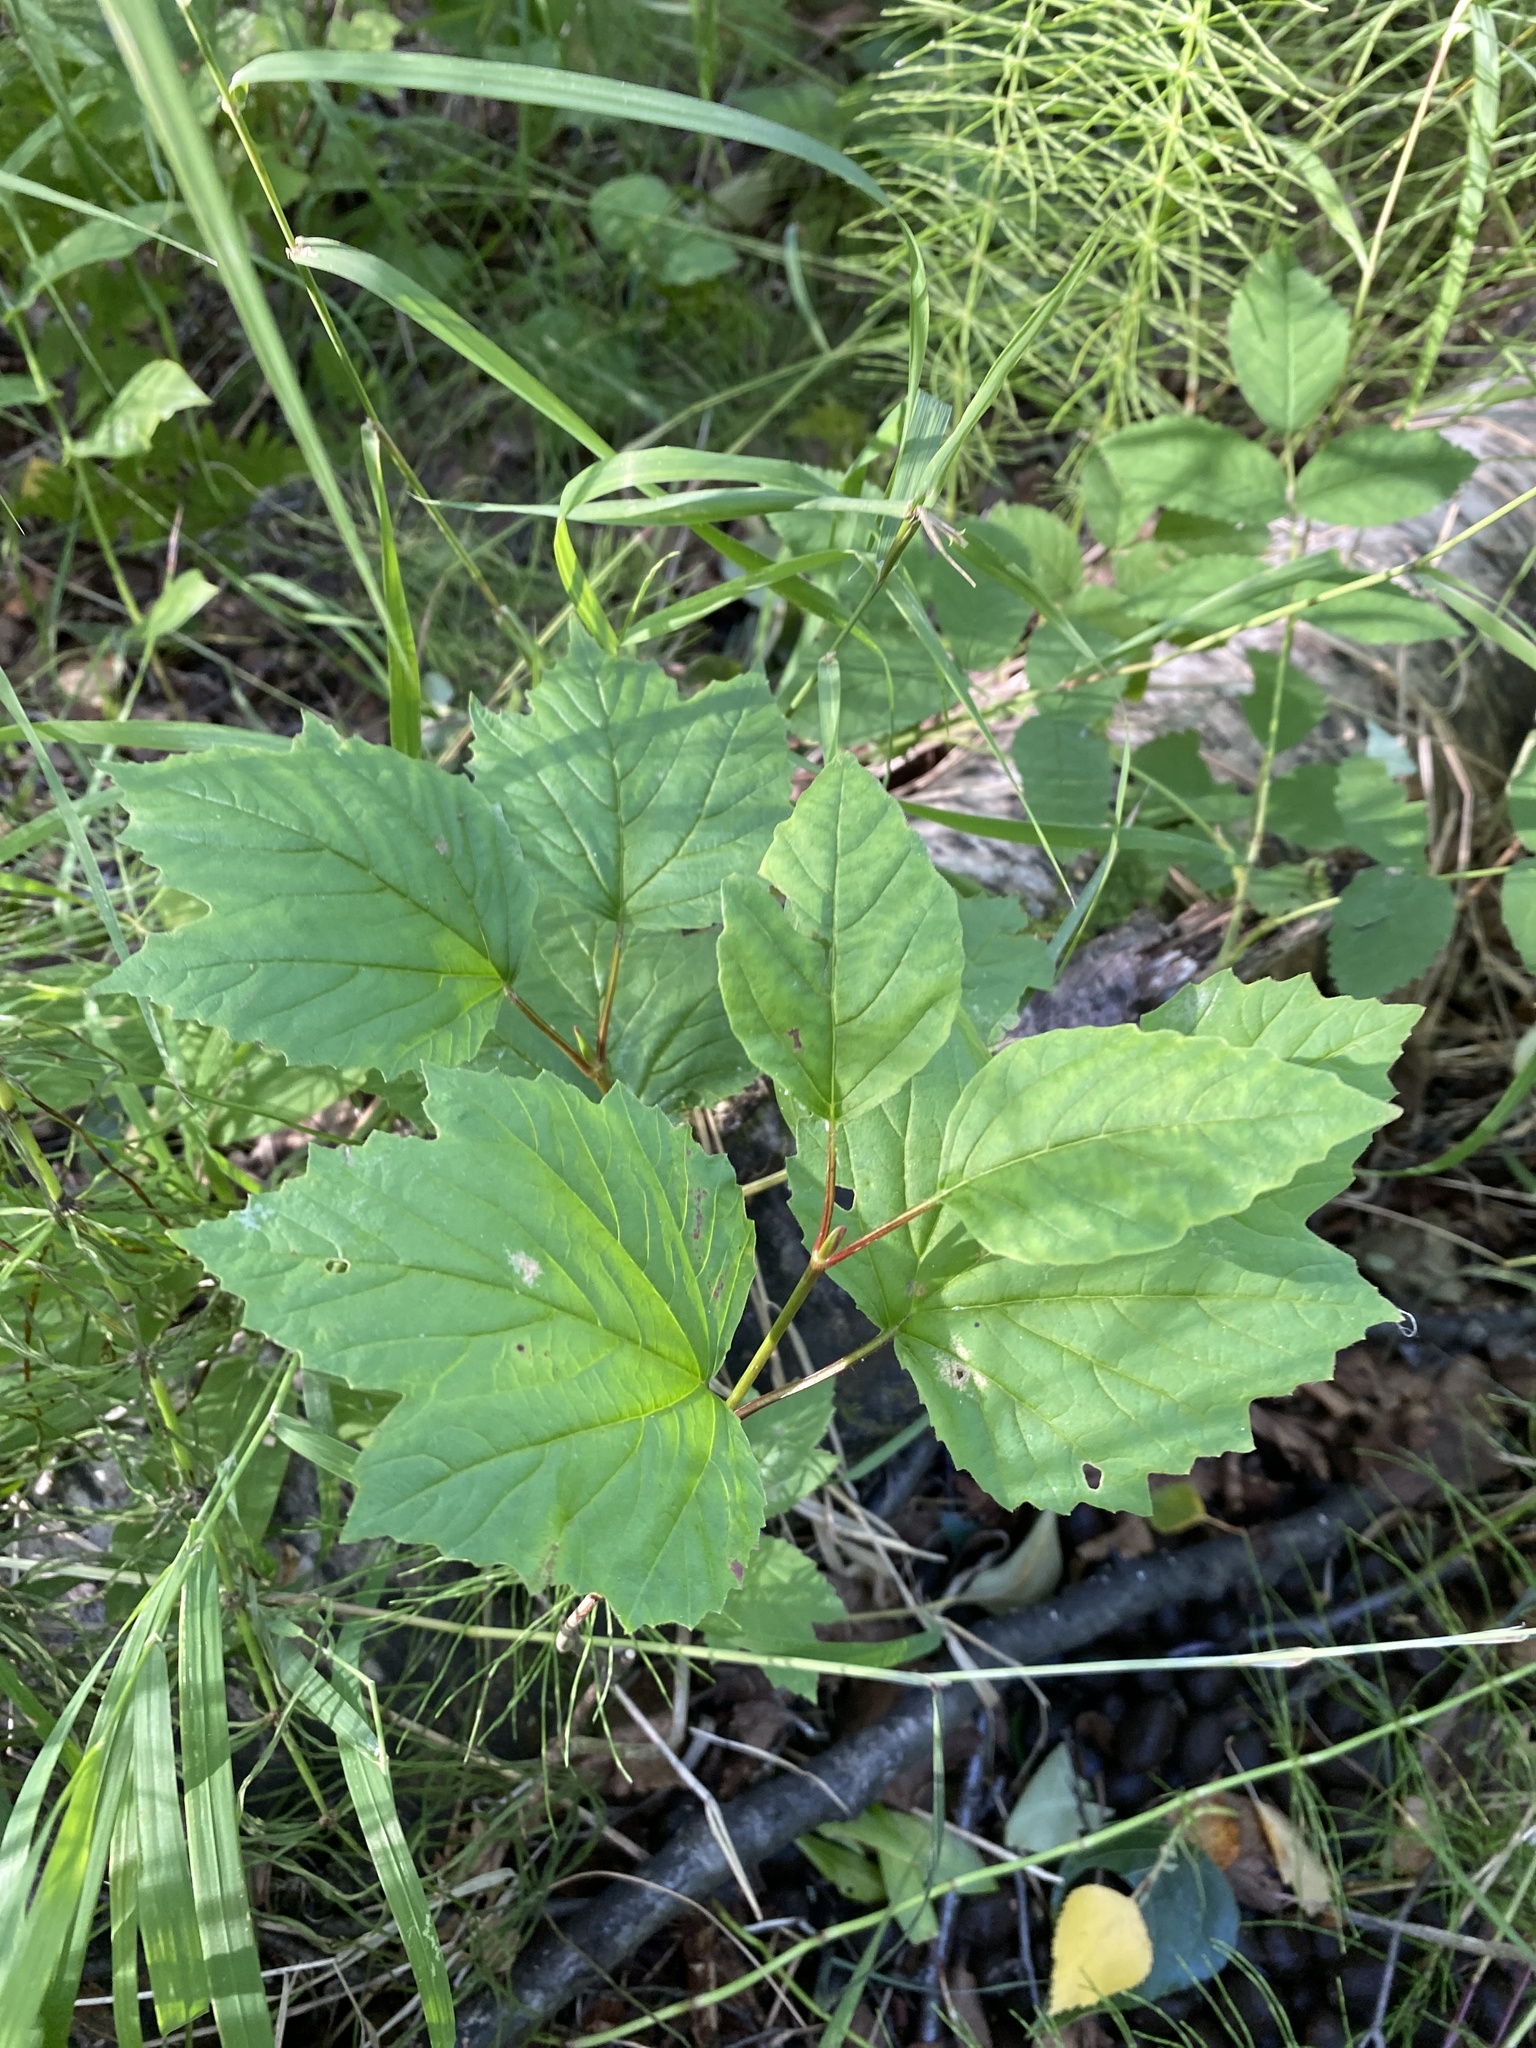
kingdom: Plantae
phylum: Tracheophyta
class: Magnoliopsida
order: Dipsacales
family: Viburnaceae
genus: Viburnum
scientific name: Viburnum edule
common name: Mooseberry
